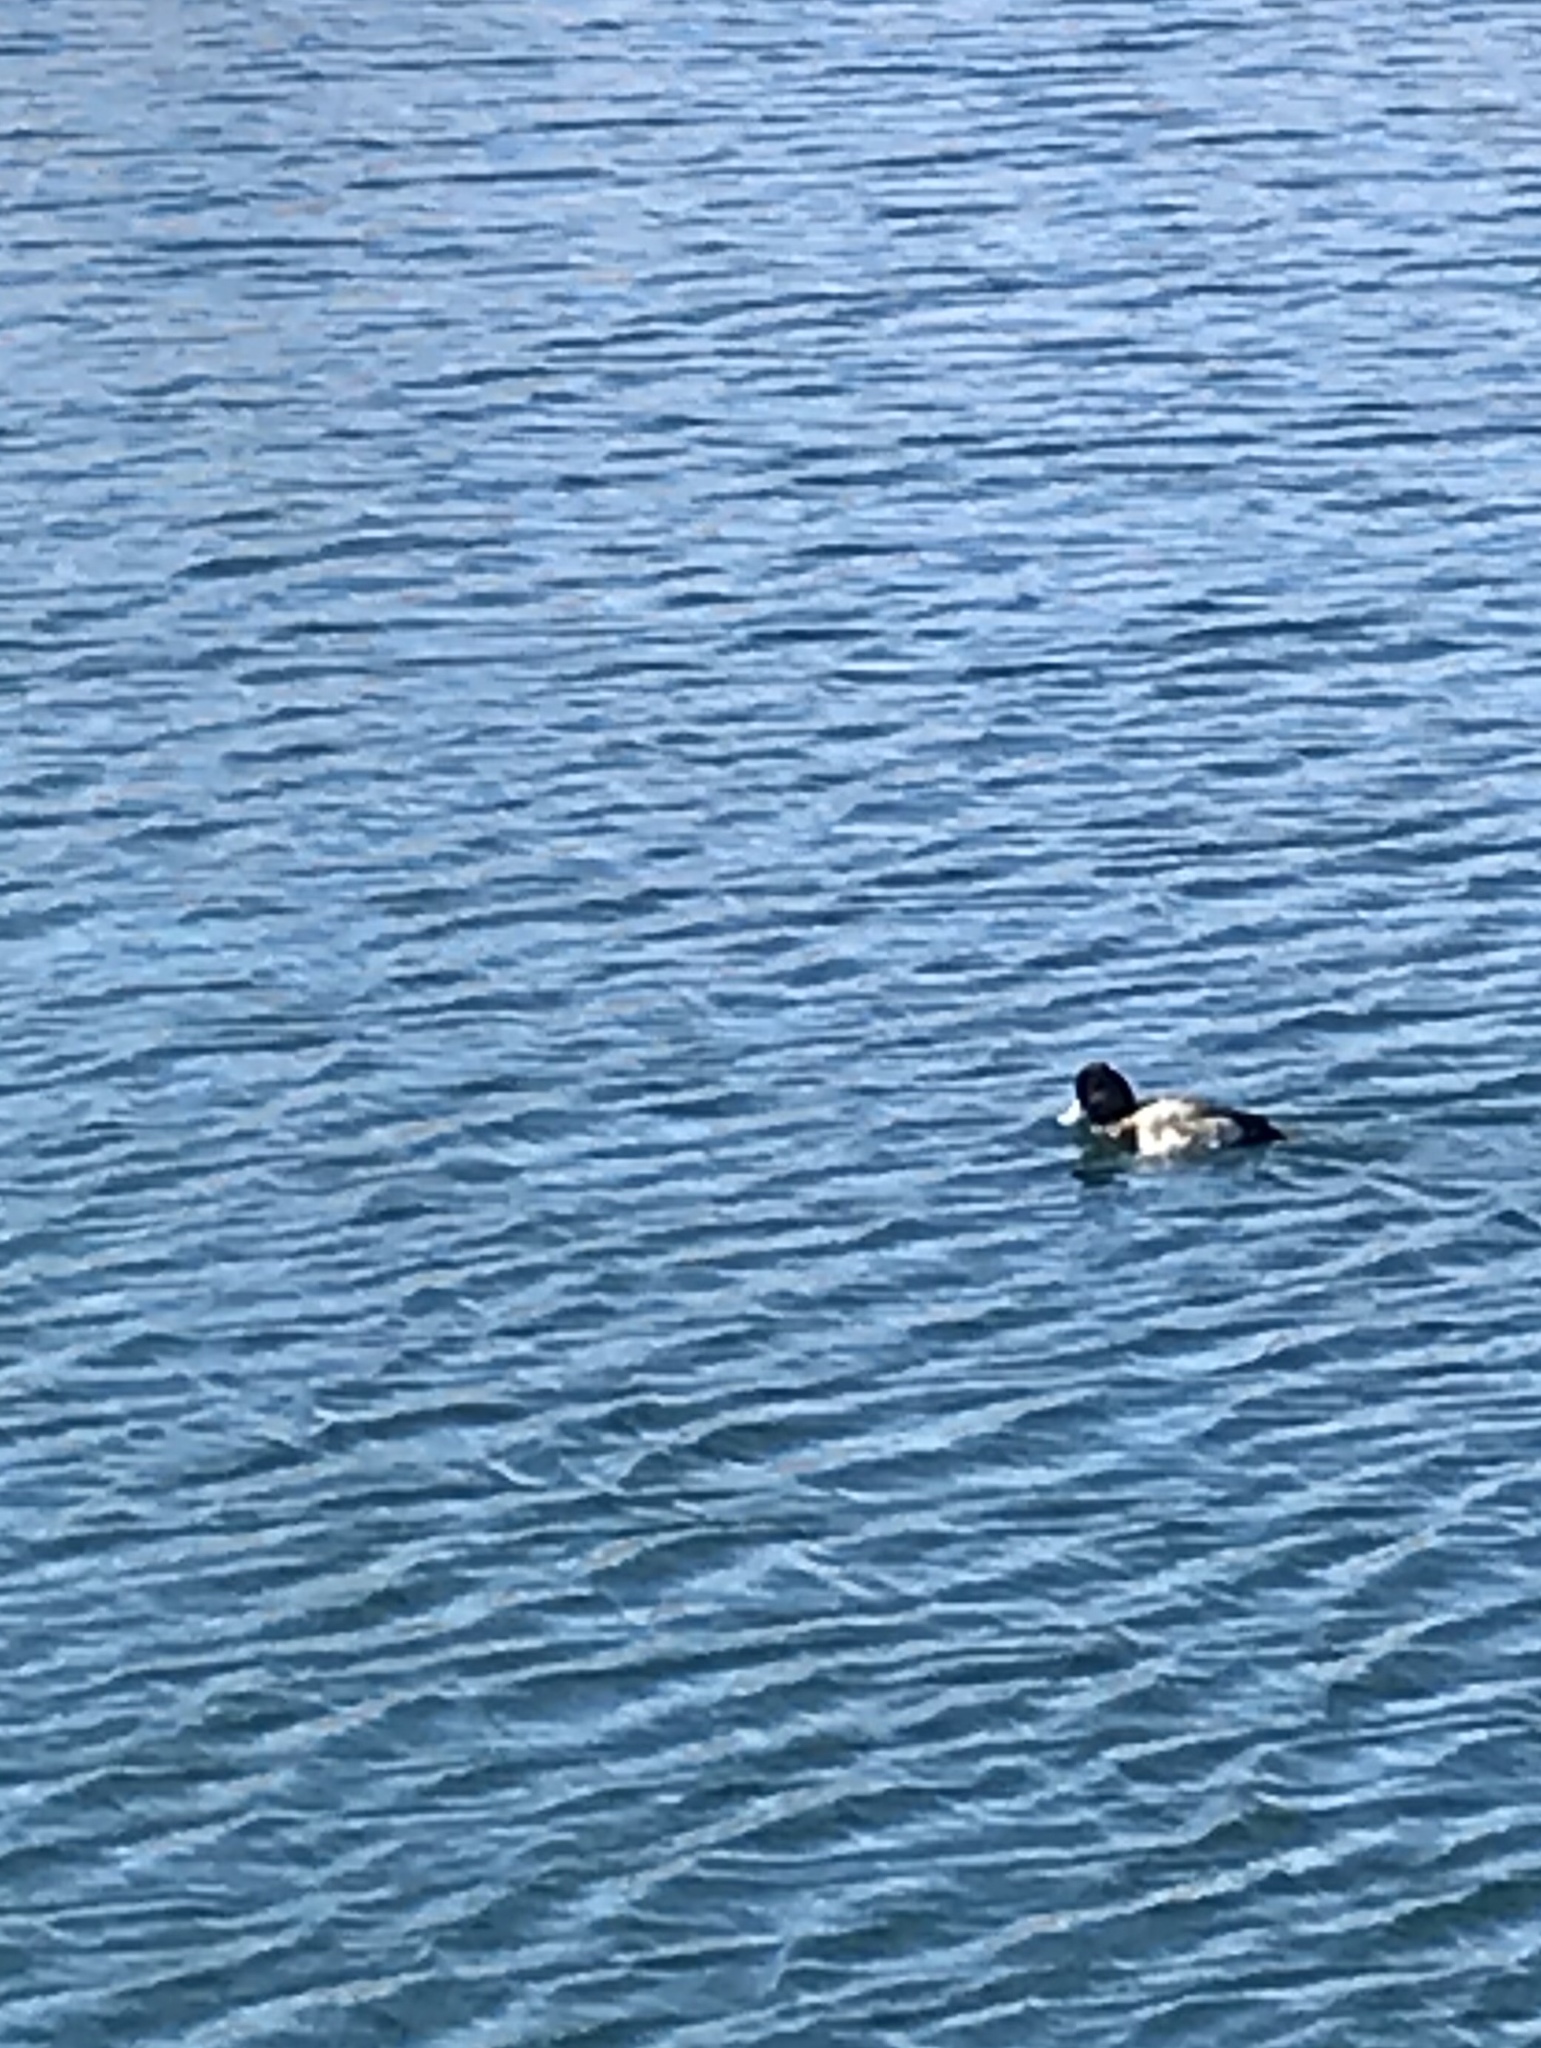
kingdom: Animalia
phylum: Chordata
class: Aves
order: Anseriformes
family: Anatidae
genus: Aythya
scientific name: Aythya affinis
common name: Lesser scaup
